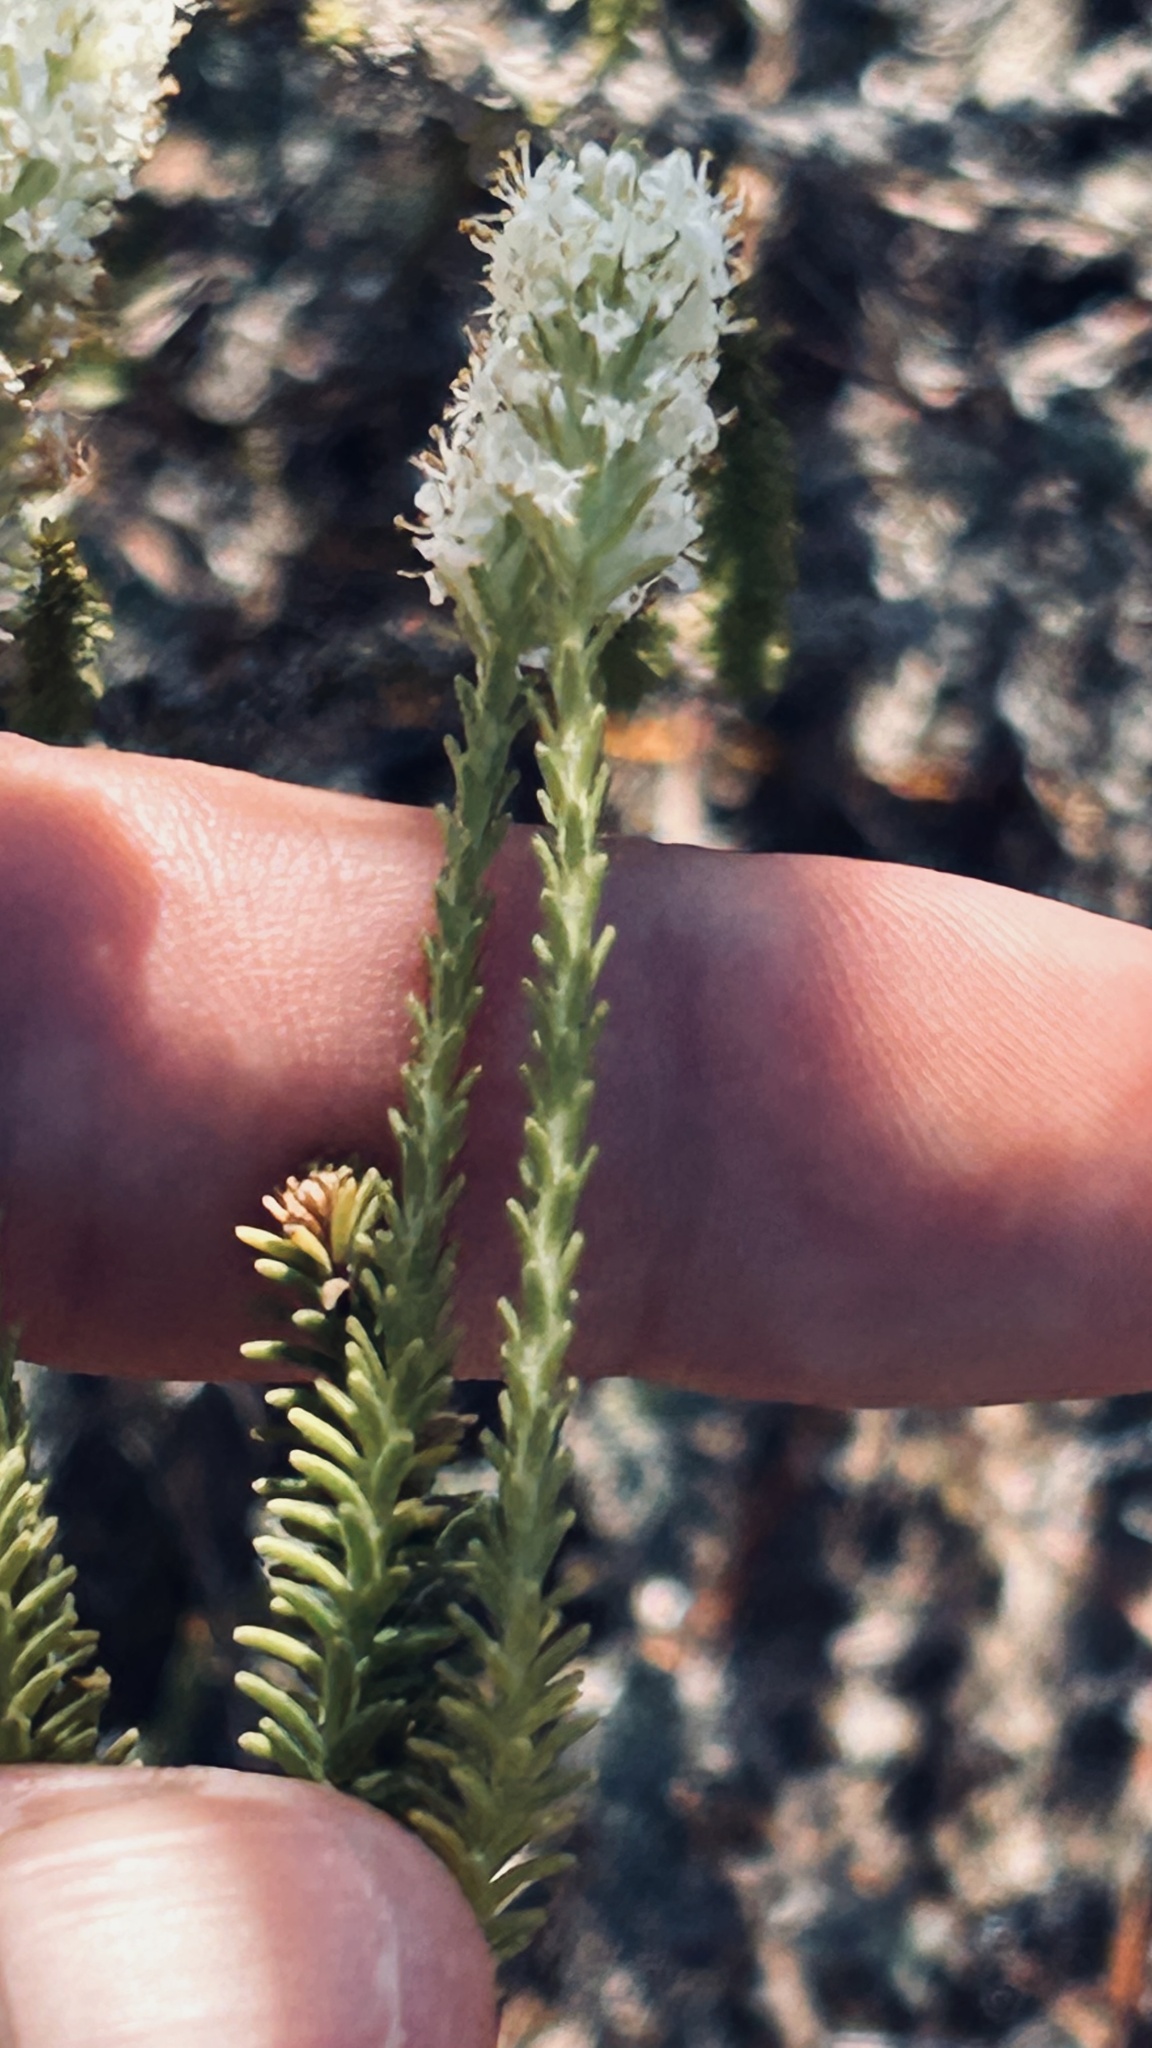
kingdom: Plantae
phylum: Tracheophyta
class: Magnoliopsida
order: Lamiales
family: Scrophulariaceae
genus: Selago
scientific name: Selago aspera
